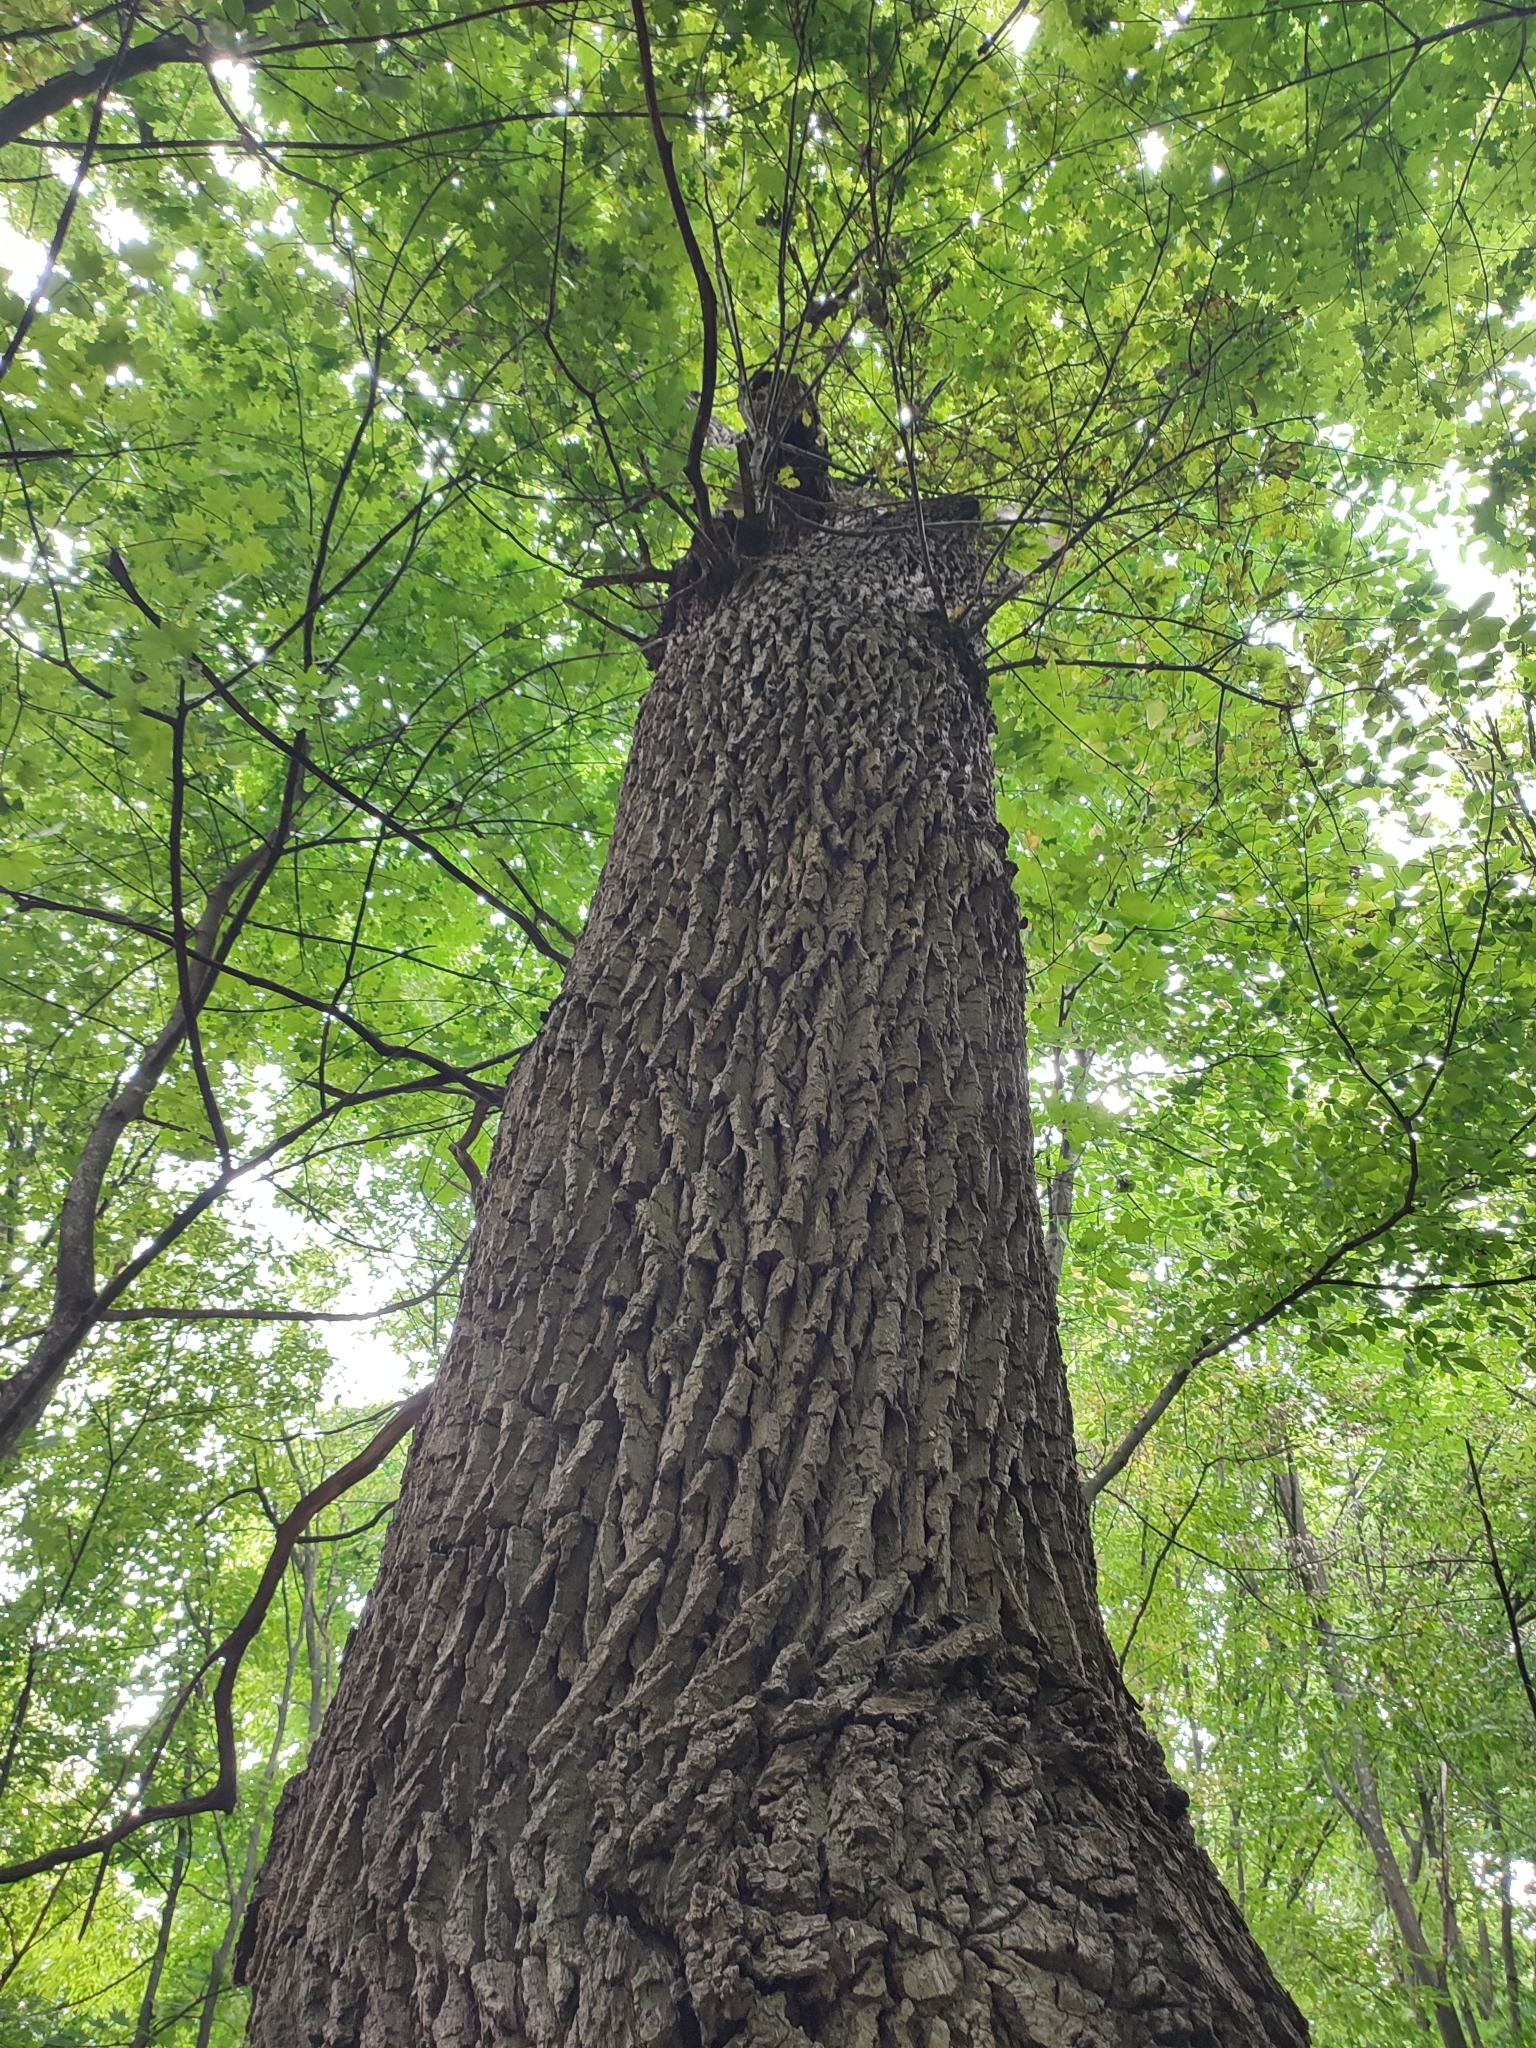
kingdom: Plantae
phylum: Tracheophyta
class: Magnoliopsida
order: Fagales
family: Fagaceae
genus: Quercus
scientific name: Quercus robur
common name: Pedunculate oak
